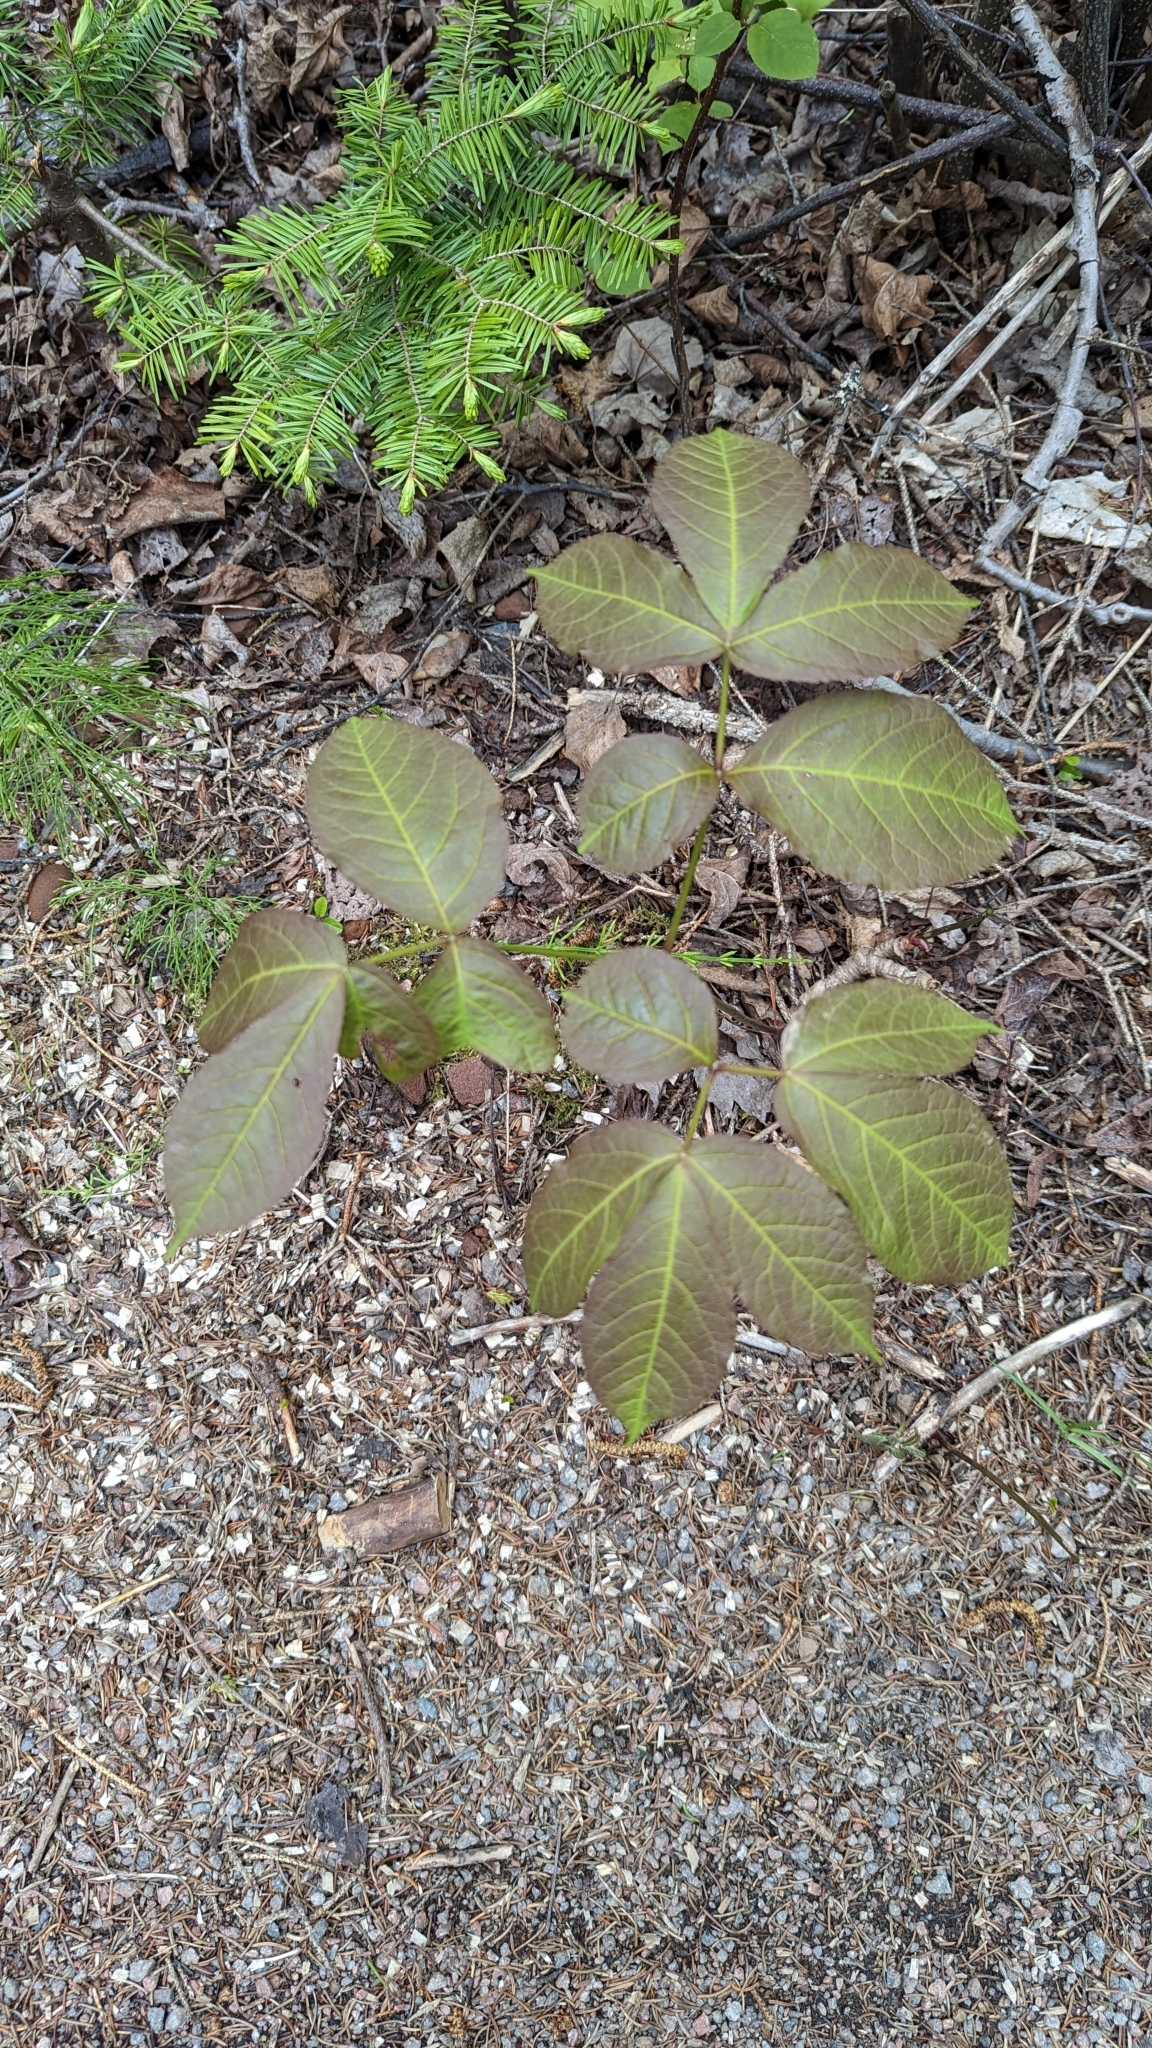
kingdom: Plantae
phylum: Tracheophyta
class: Magnoliopsida
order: Apiales
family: Araliaceae
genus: Aralia
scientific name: Aralia nudicaulis
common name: Wild sarsaparilla
